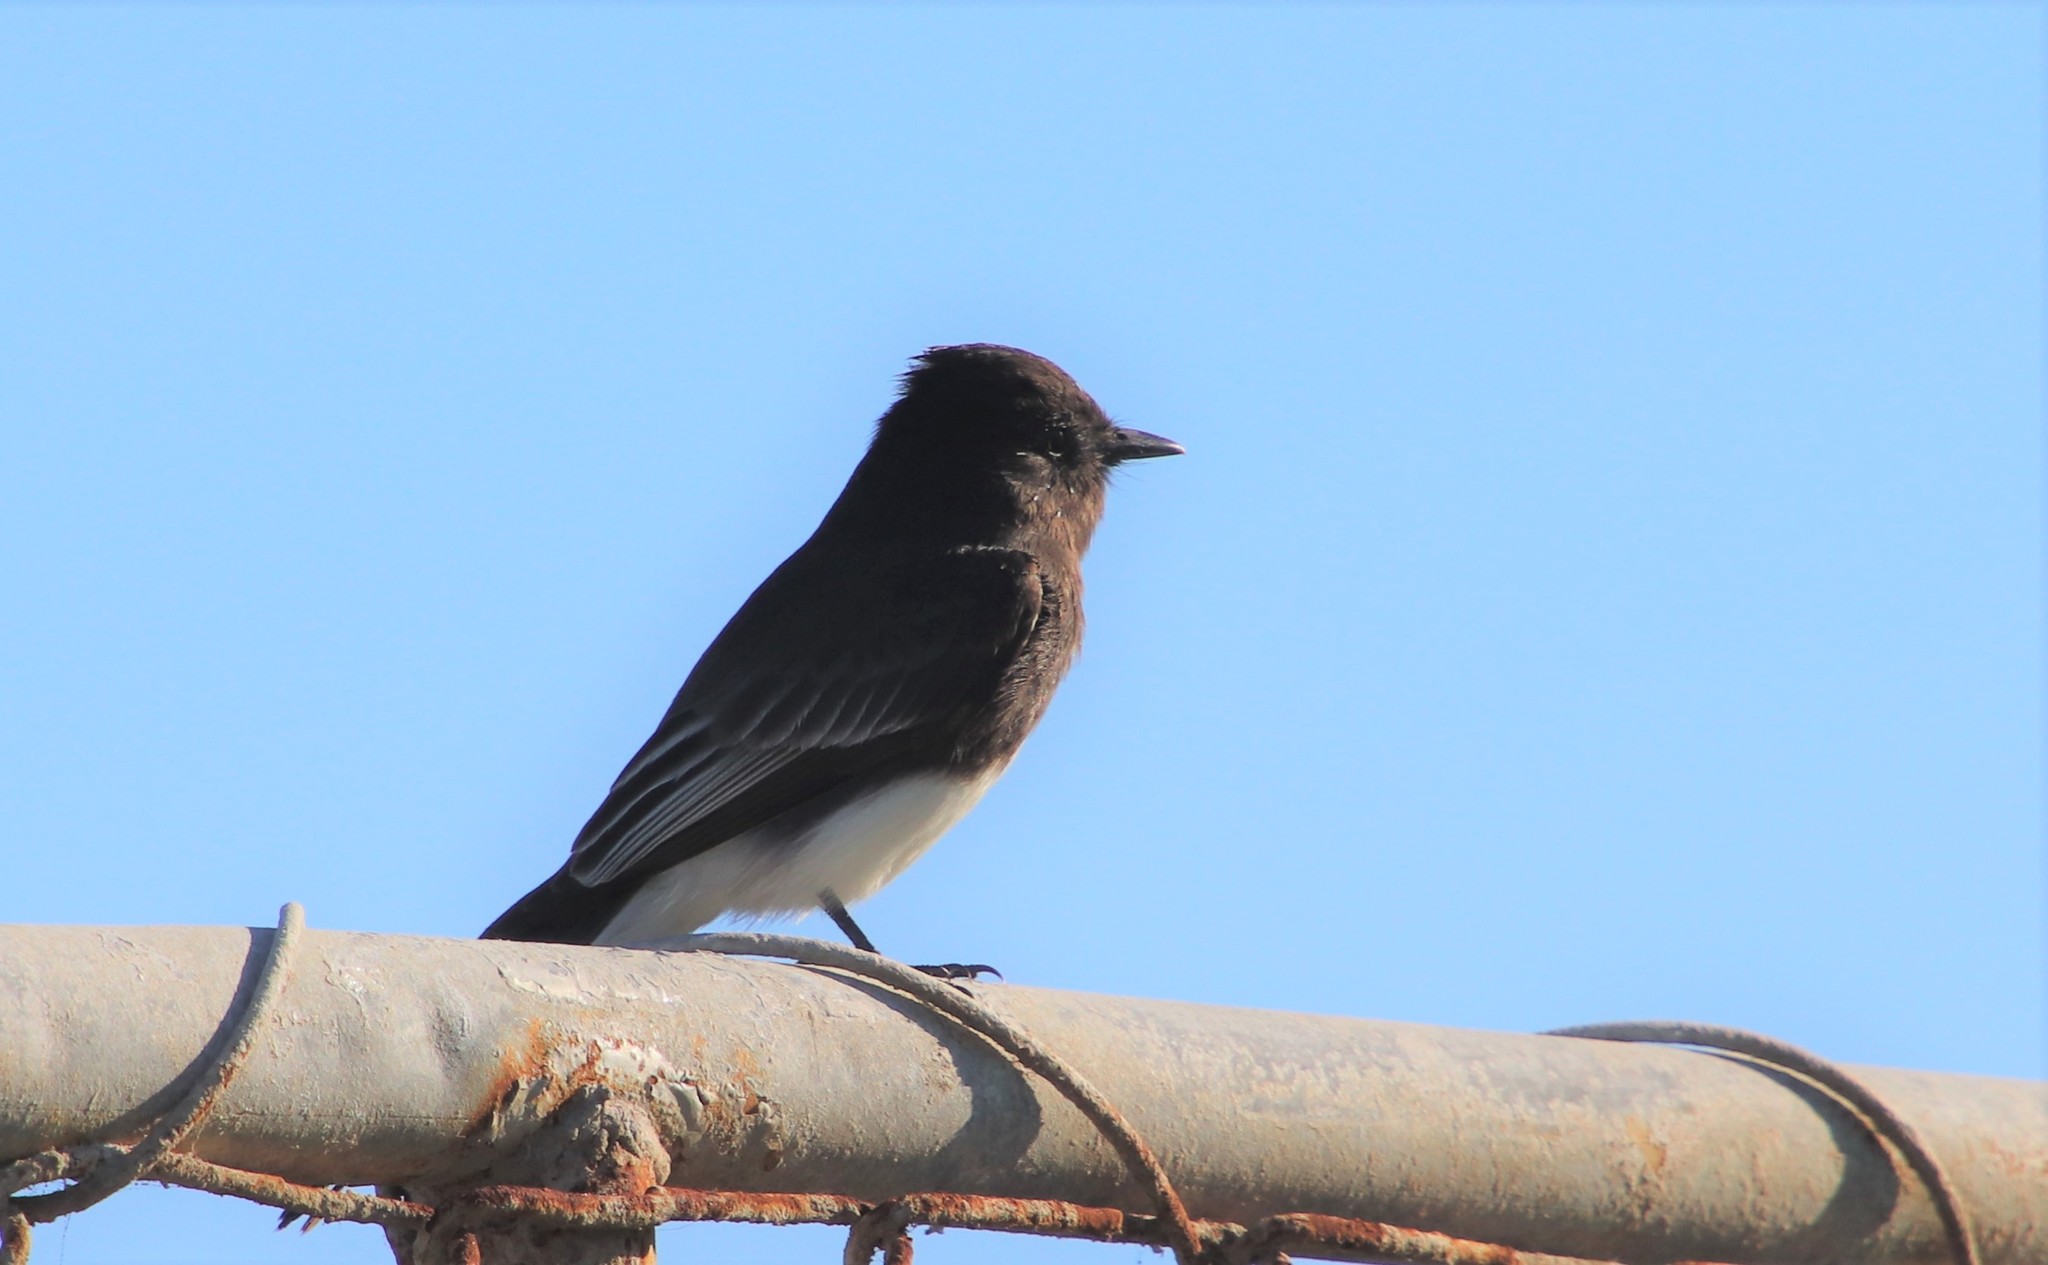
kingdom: Animalia
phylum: Chordata
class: Aves
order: Passeriformes
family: Tyrannidae
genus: Sayornis
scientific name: Sayornis nigricans
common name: Black phoebe
